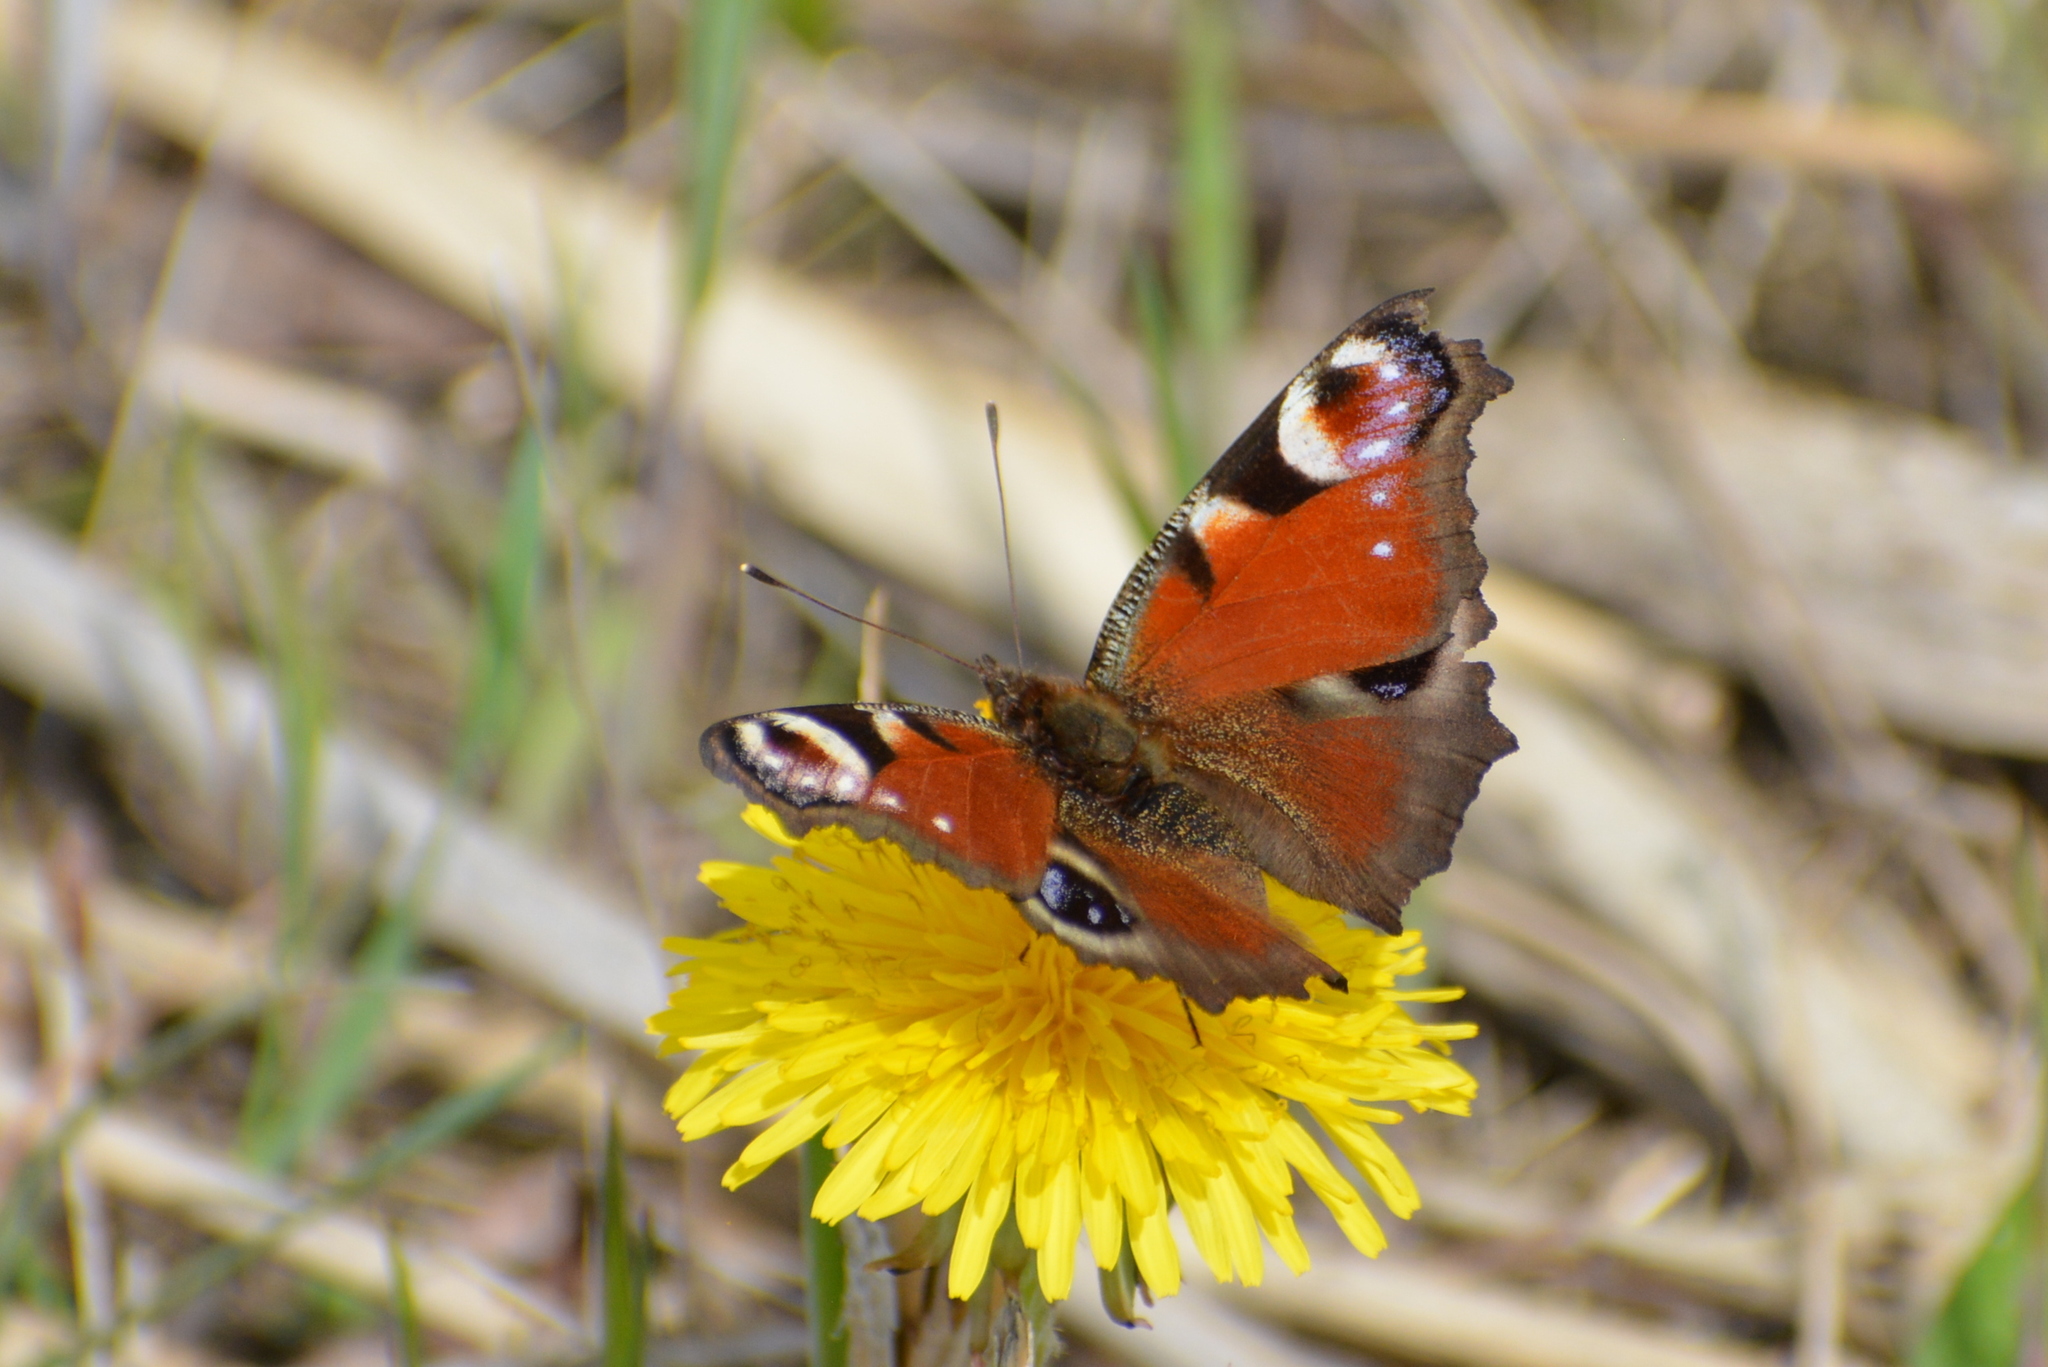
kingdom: Animalia
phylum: Arthropoda
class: Insecta
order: Lepidoptera
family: Nymphalidae
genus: Aglais
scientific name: Aglais io
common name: Peacock
